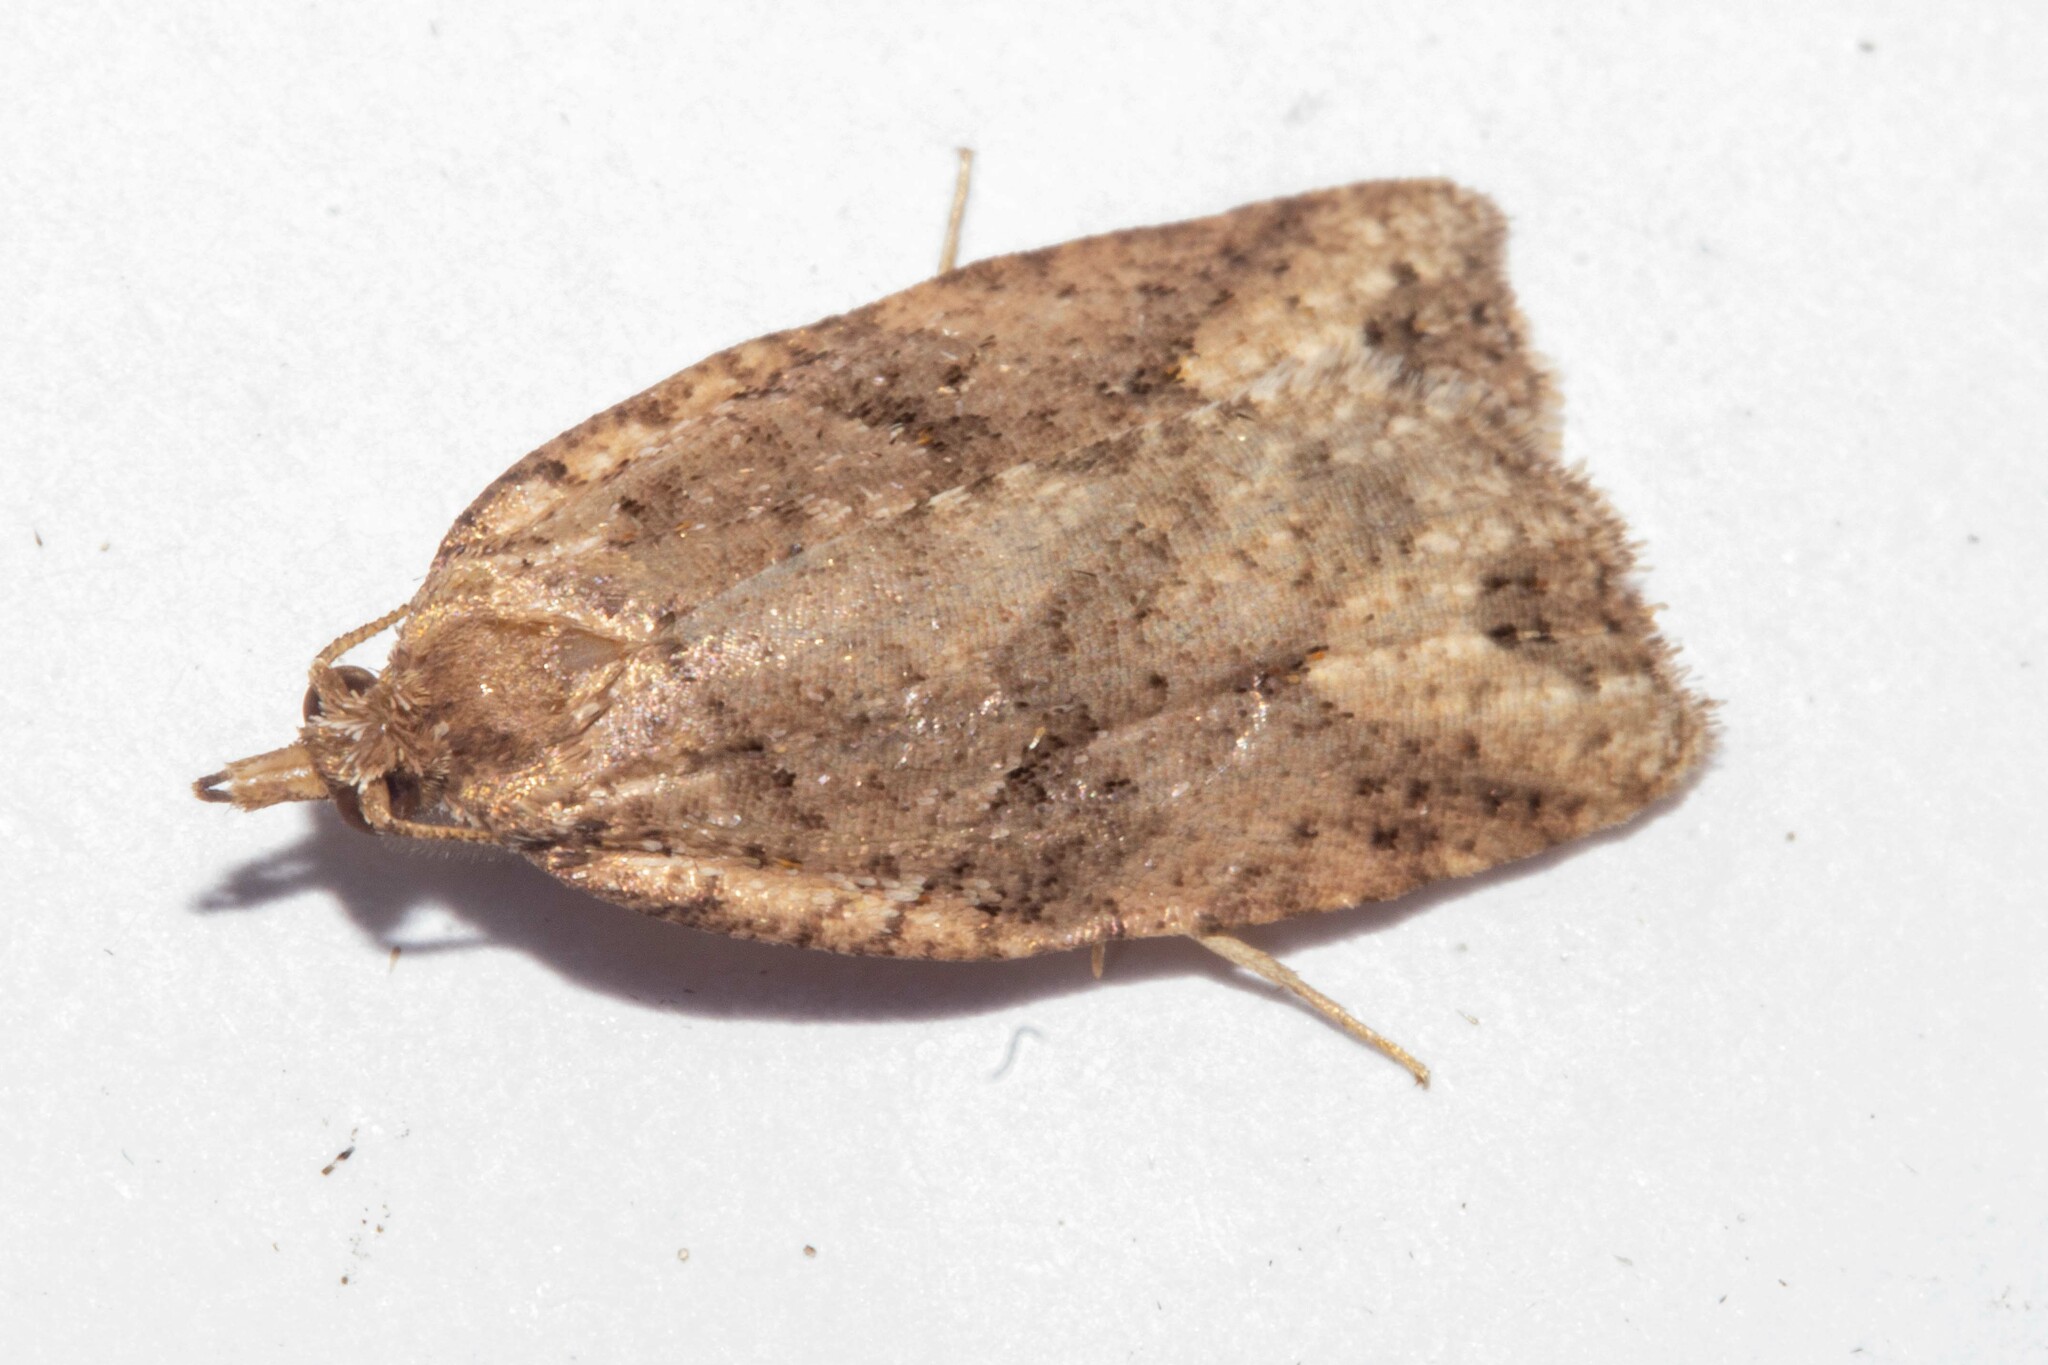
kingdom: Animalia
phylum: Arthropoda
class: Insecta
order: Lepidoptera
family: Tortricidae
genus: Ctenopseustis
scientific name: Ctenopseustis obliquana
